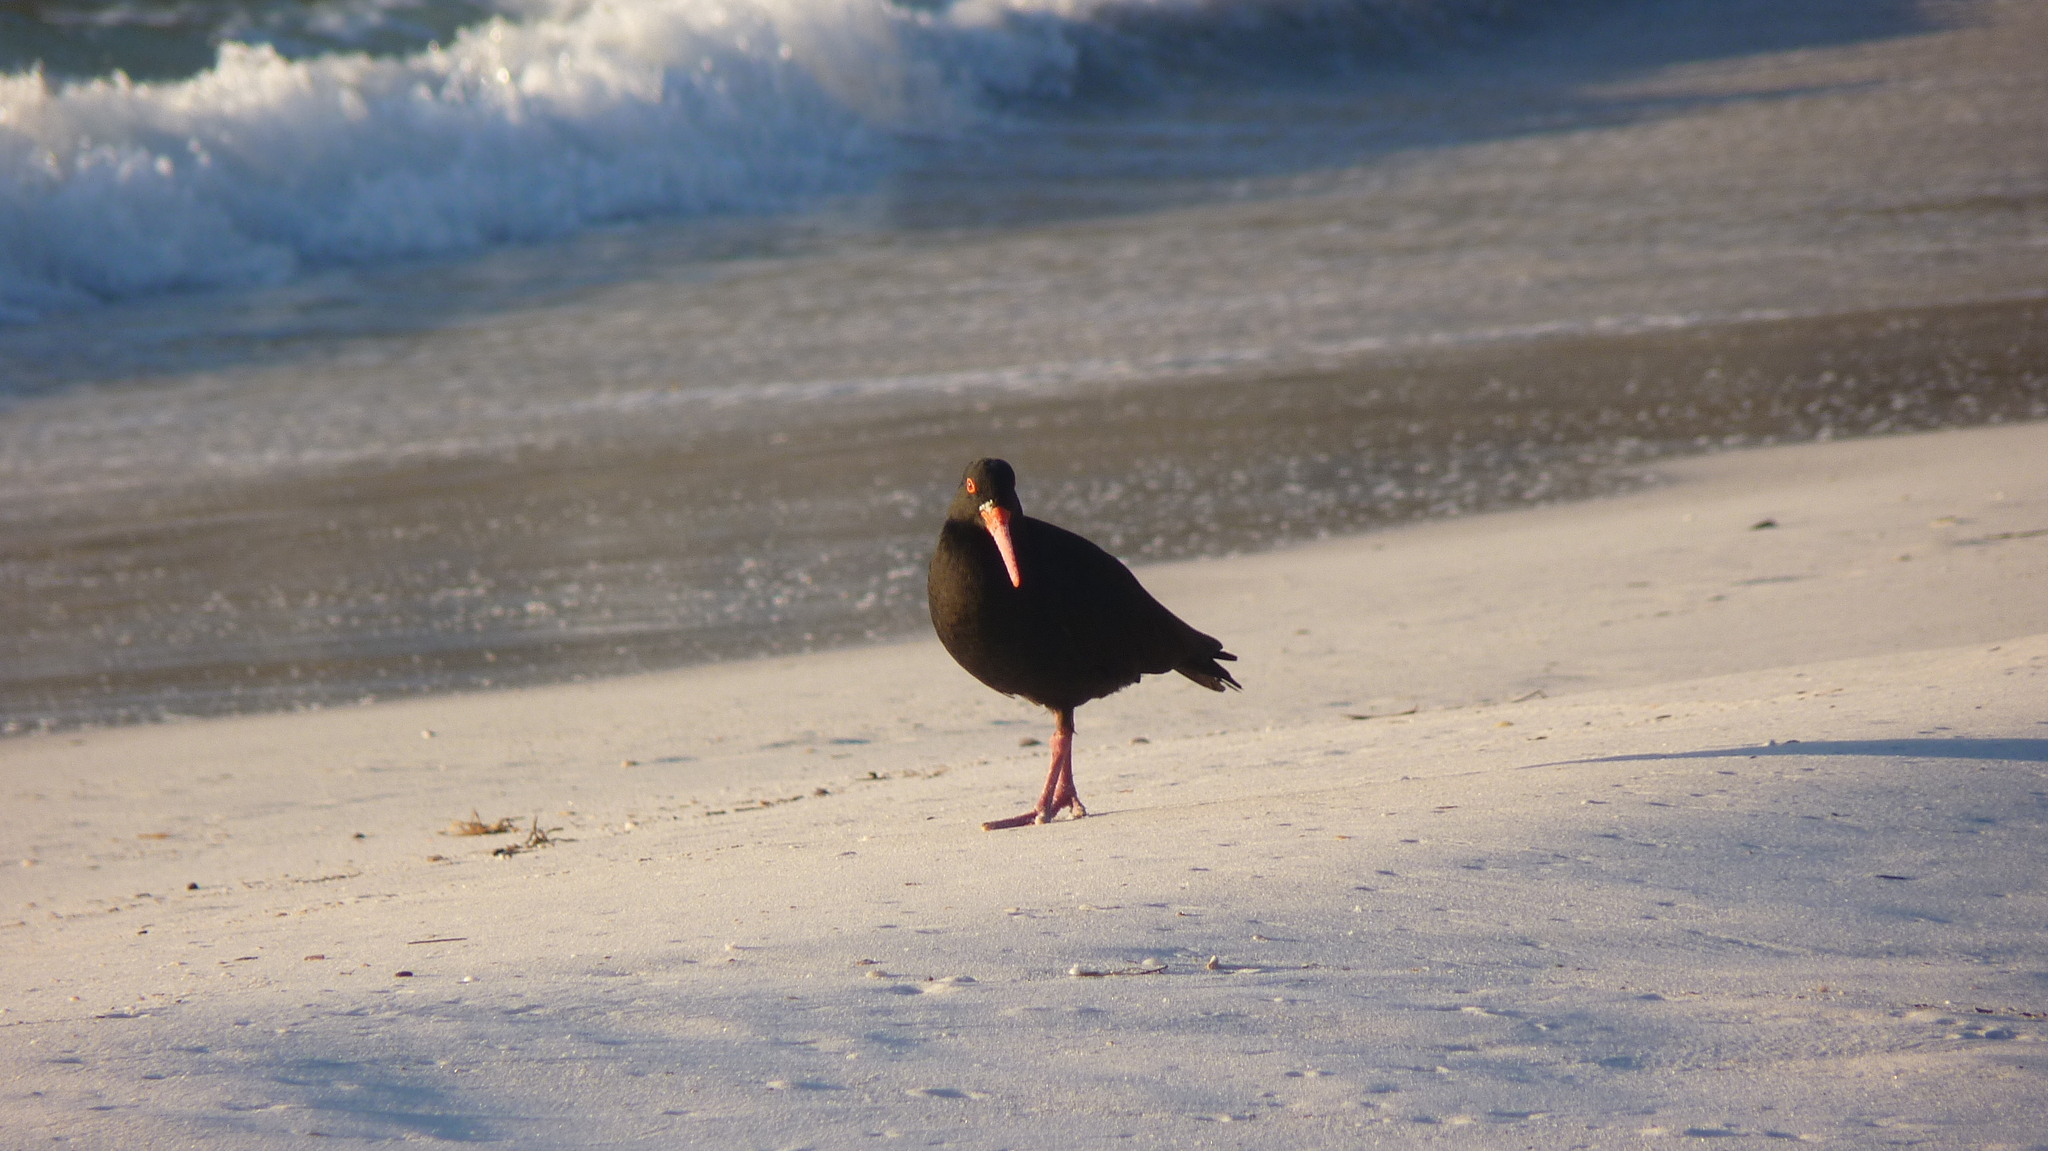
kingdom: Animalia
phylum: Chordata
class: Aves
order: Charadriiformes
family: Haematopodidae
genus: Haematopus
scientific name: Haematopus fuliginosus
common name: Sooty oystercatcher
